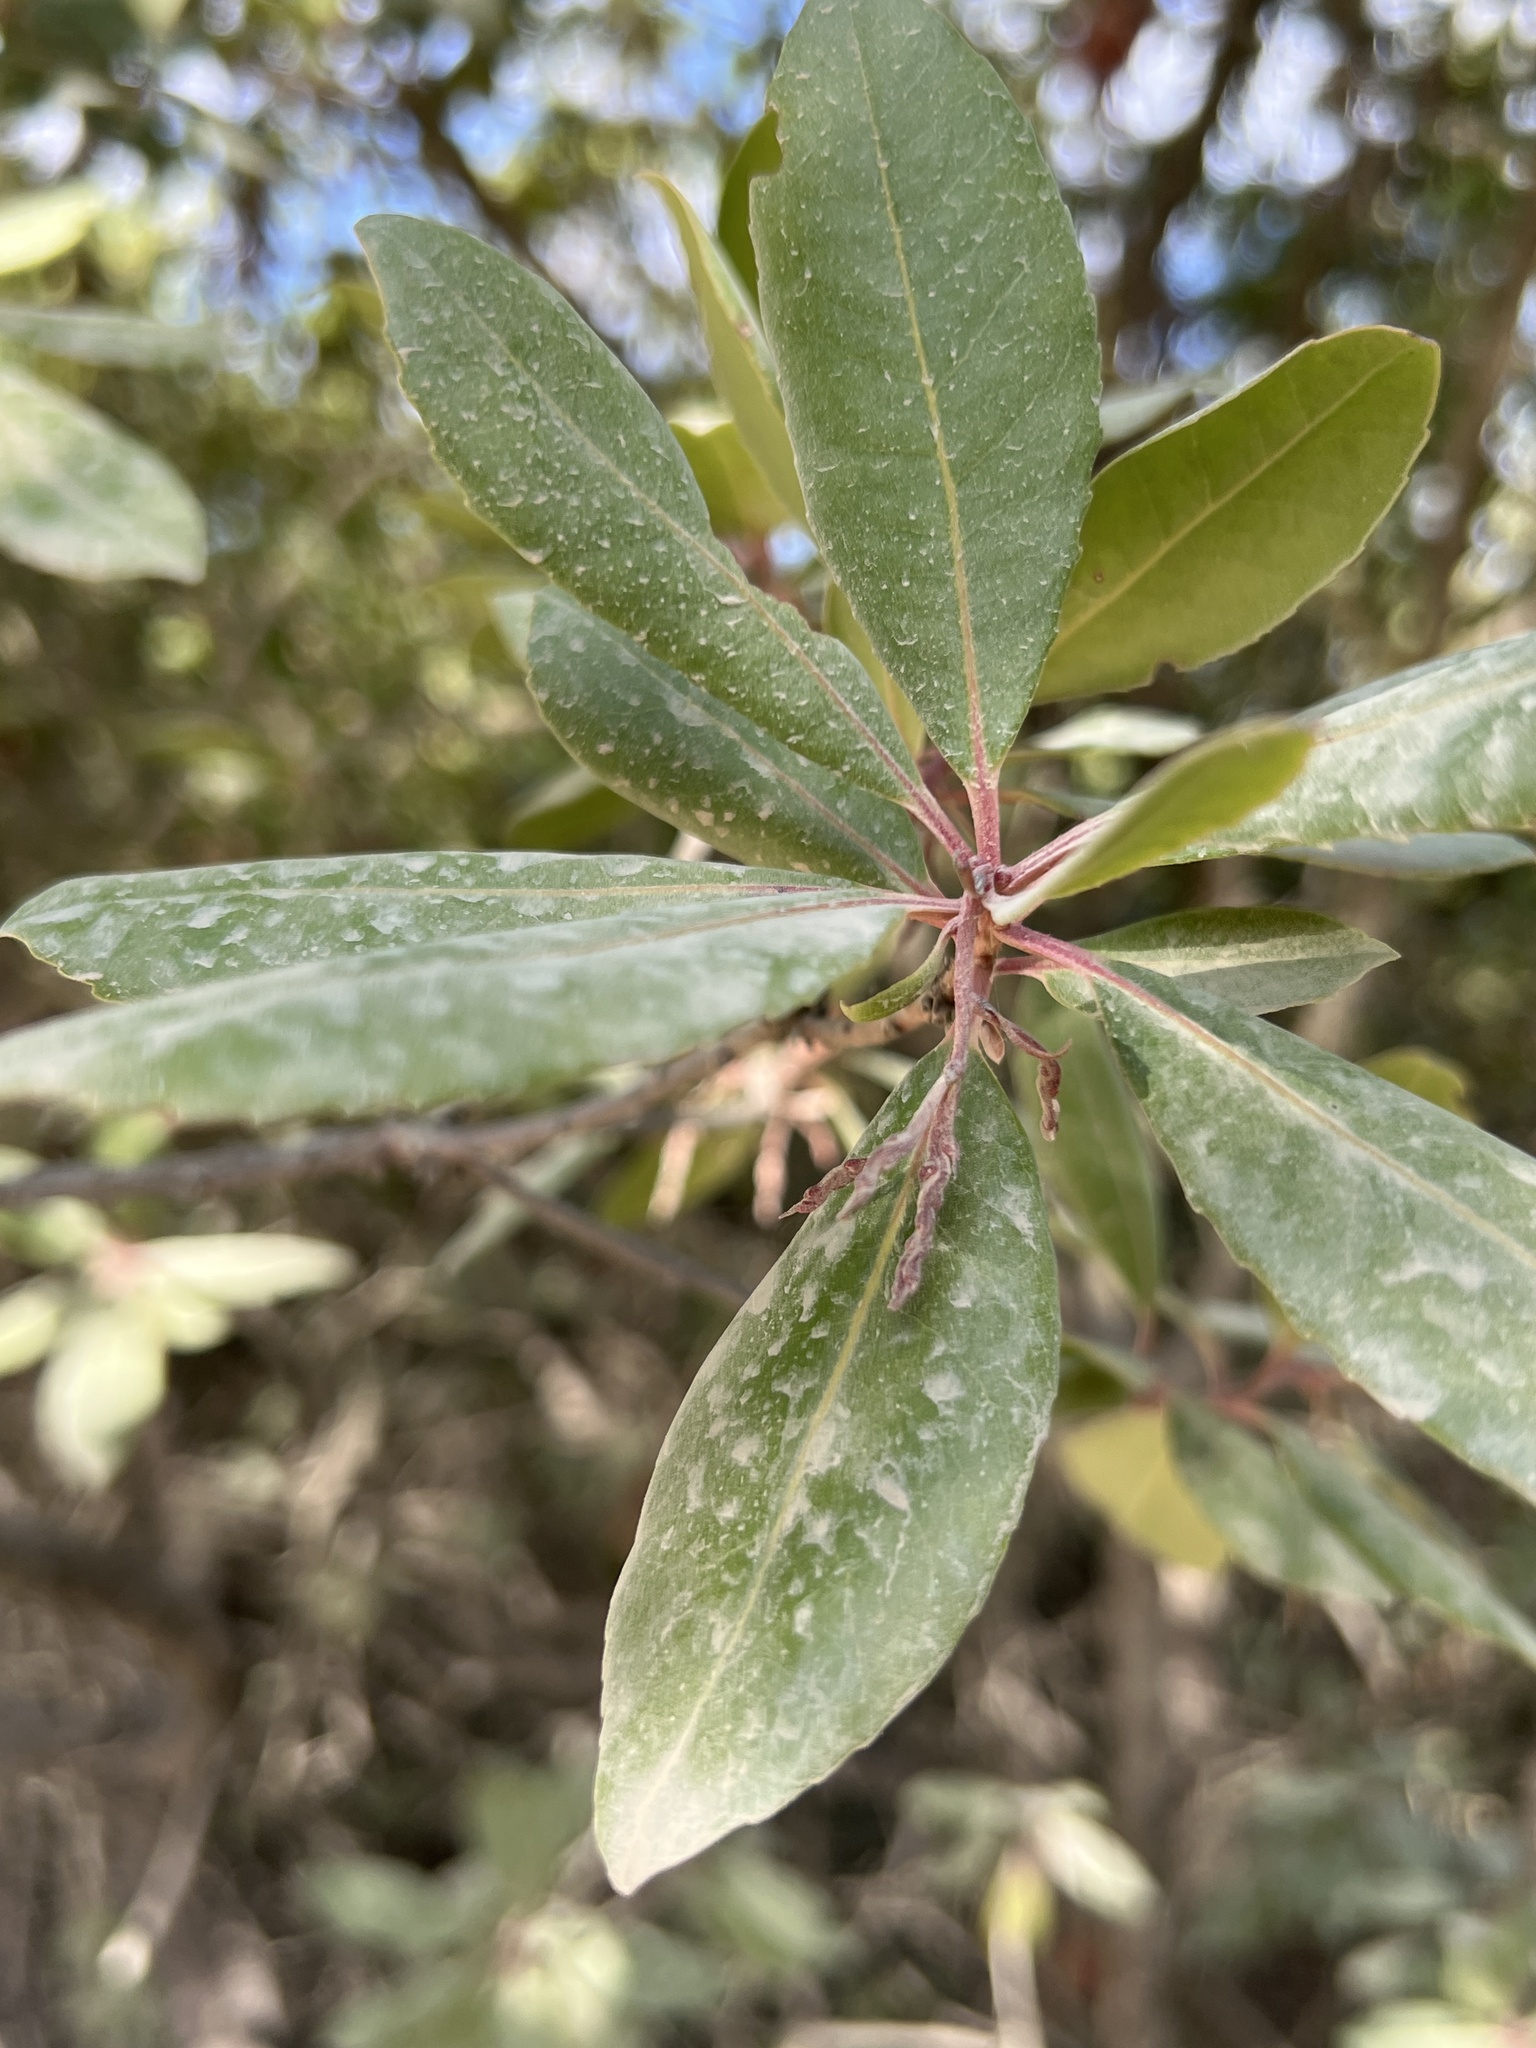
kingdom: Plantae
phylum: Tracheophyta
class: Magnoliopsida
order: Ericales
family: Ericaceae
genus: Arbutus
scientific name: Arbutus unedo
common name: Strawberry-tree
